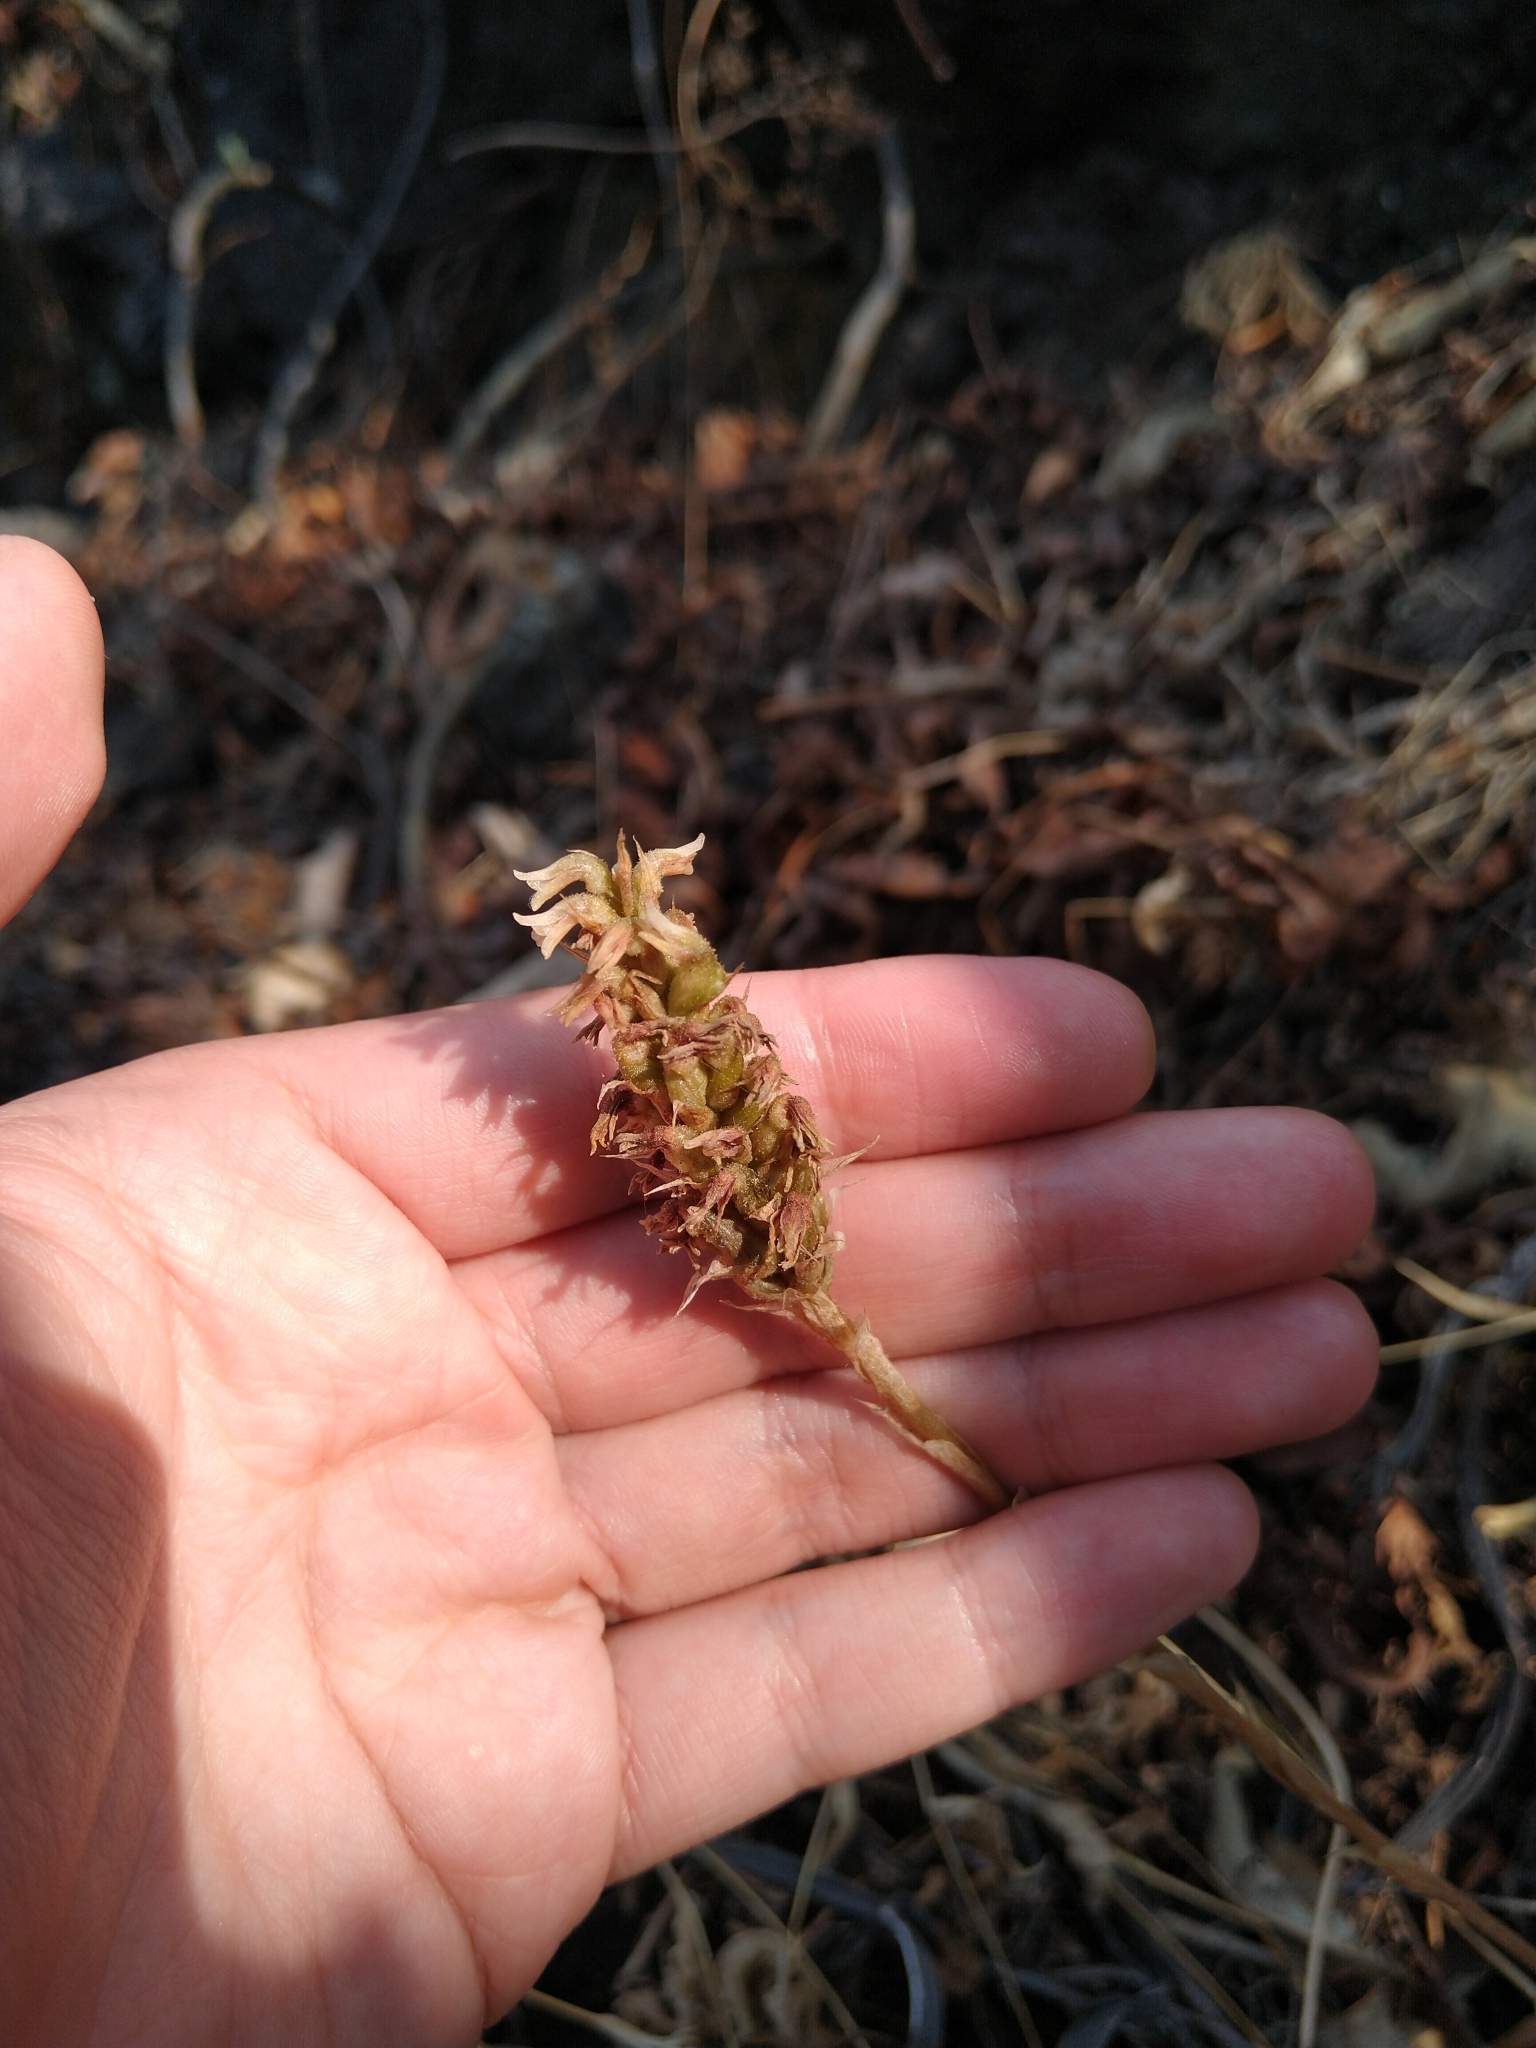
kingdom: Plantae
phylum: Tracheophyta
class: Liliopsida
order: Asparagales
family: Orchidaceae
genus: Aulosepalum
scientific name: Aulosepalum pyramidale
